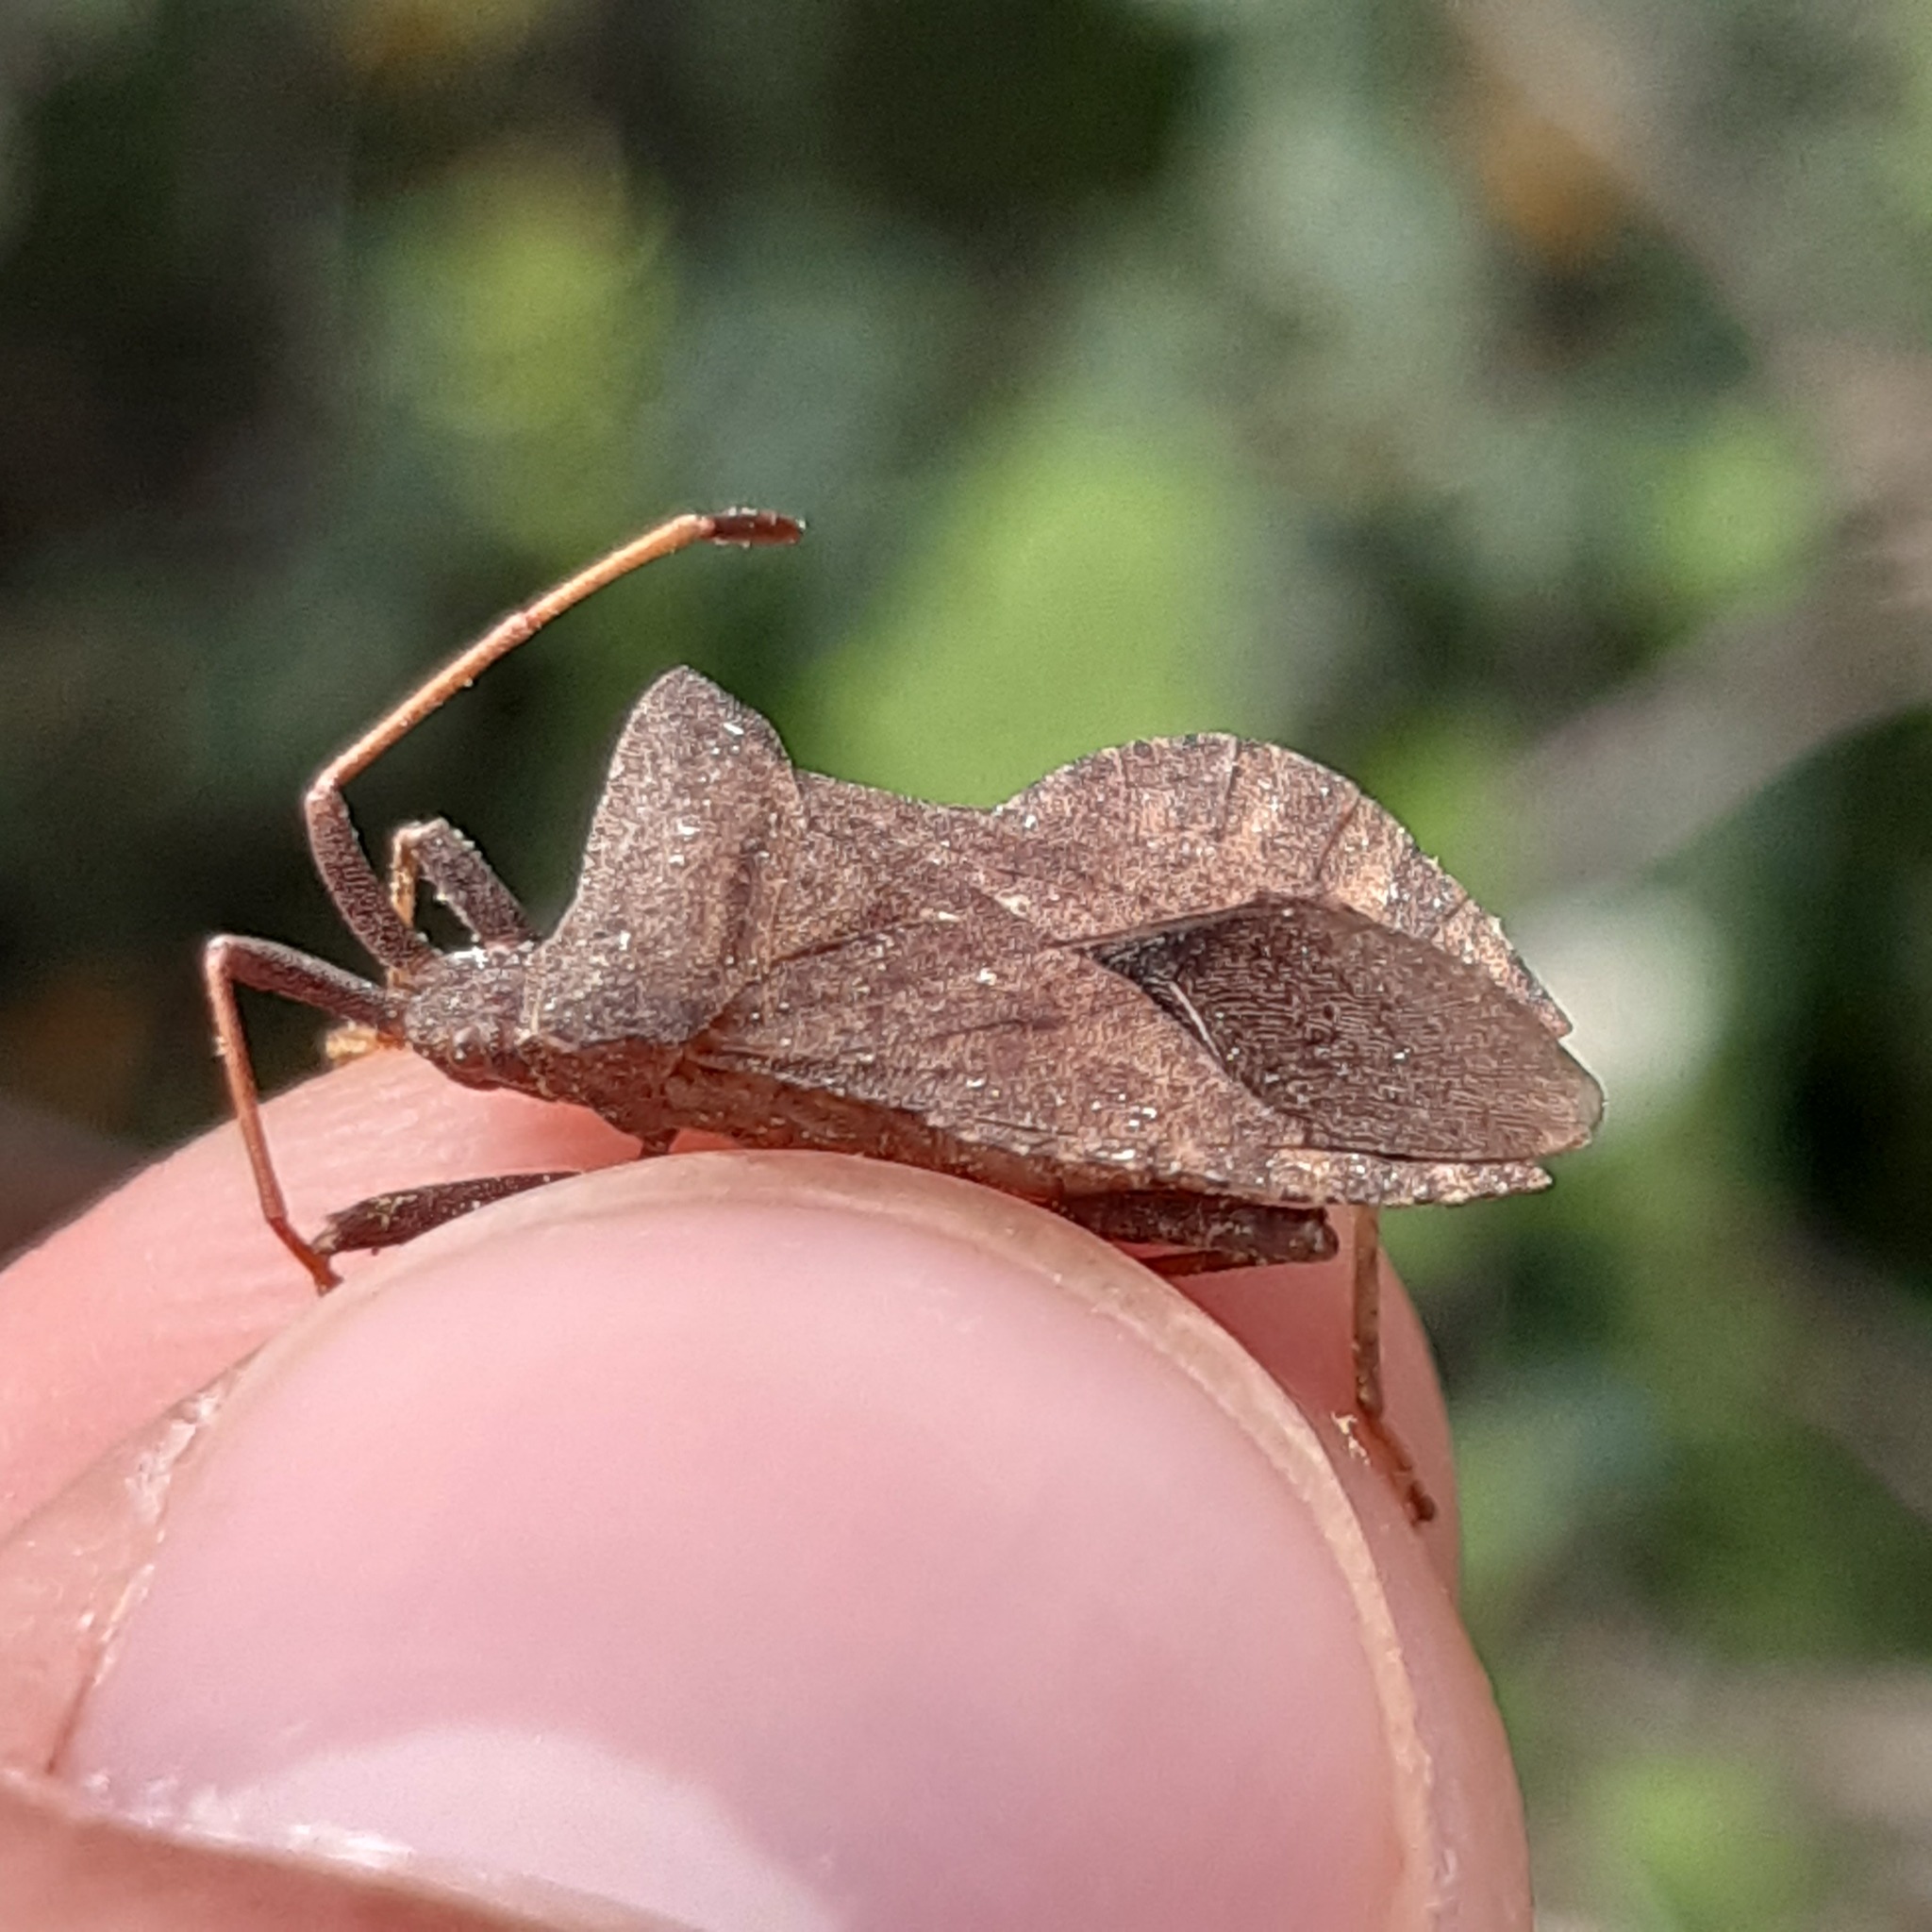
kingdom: Animalia
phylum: Arthropoda
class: Insecta
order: Hemiptera
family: Coreidae
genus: Coreus
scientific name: Coreus marginatus
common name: Dock bug
